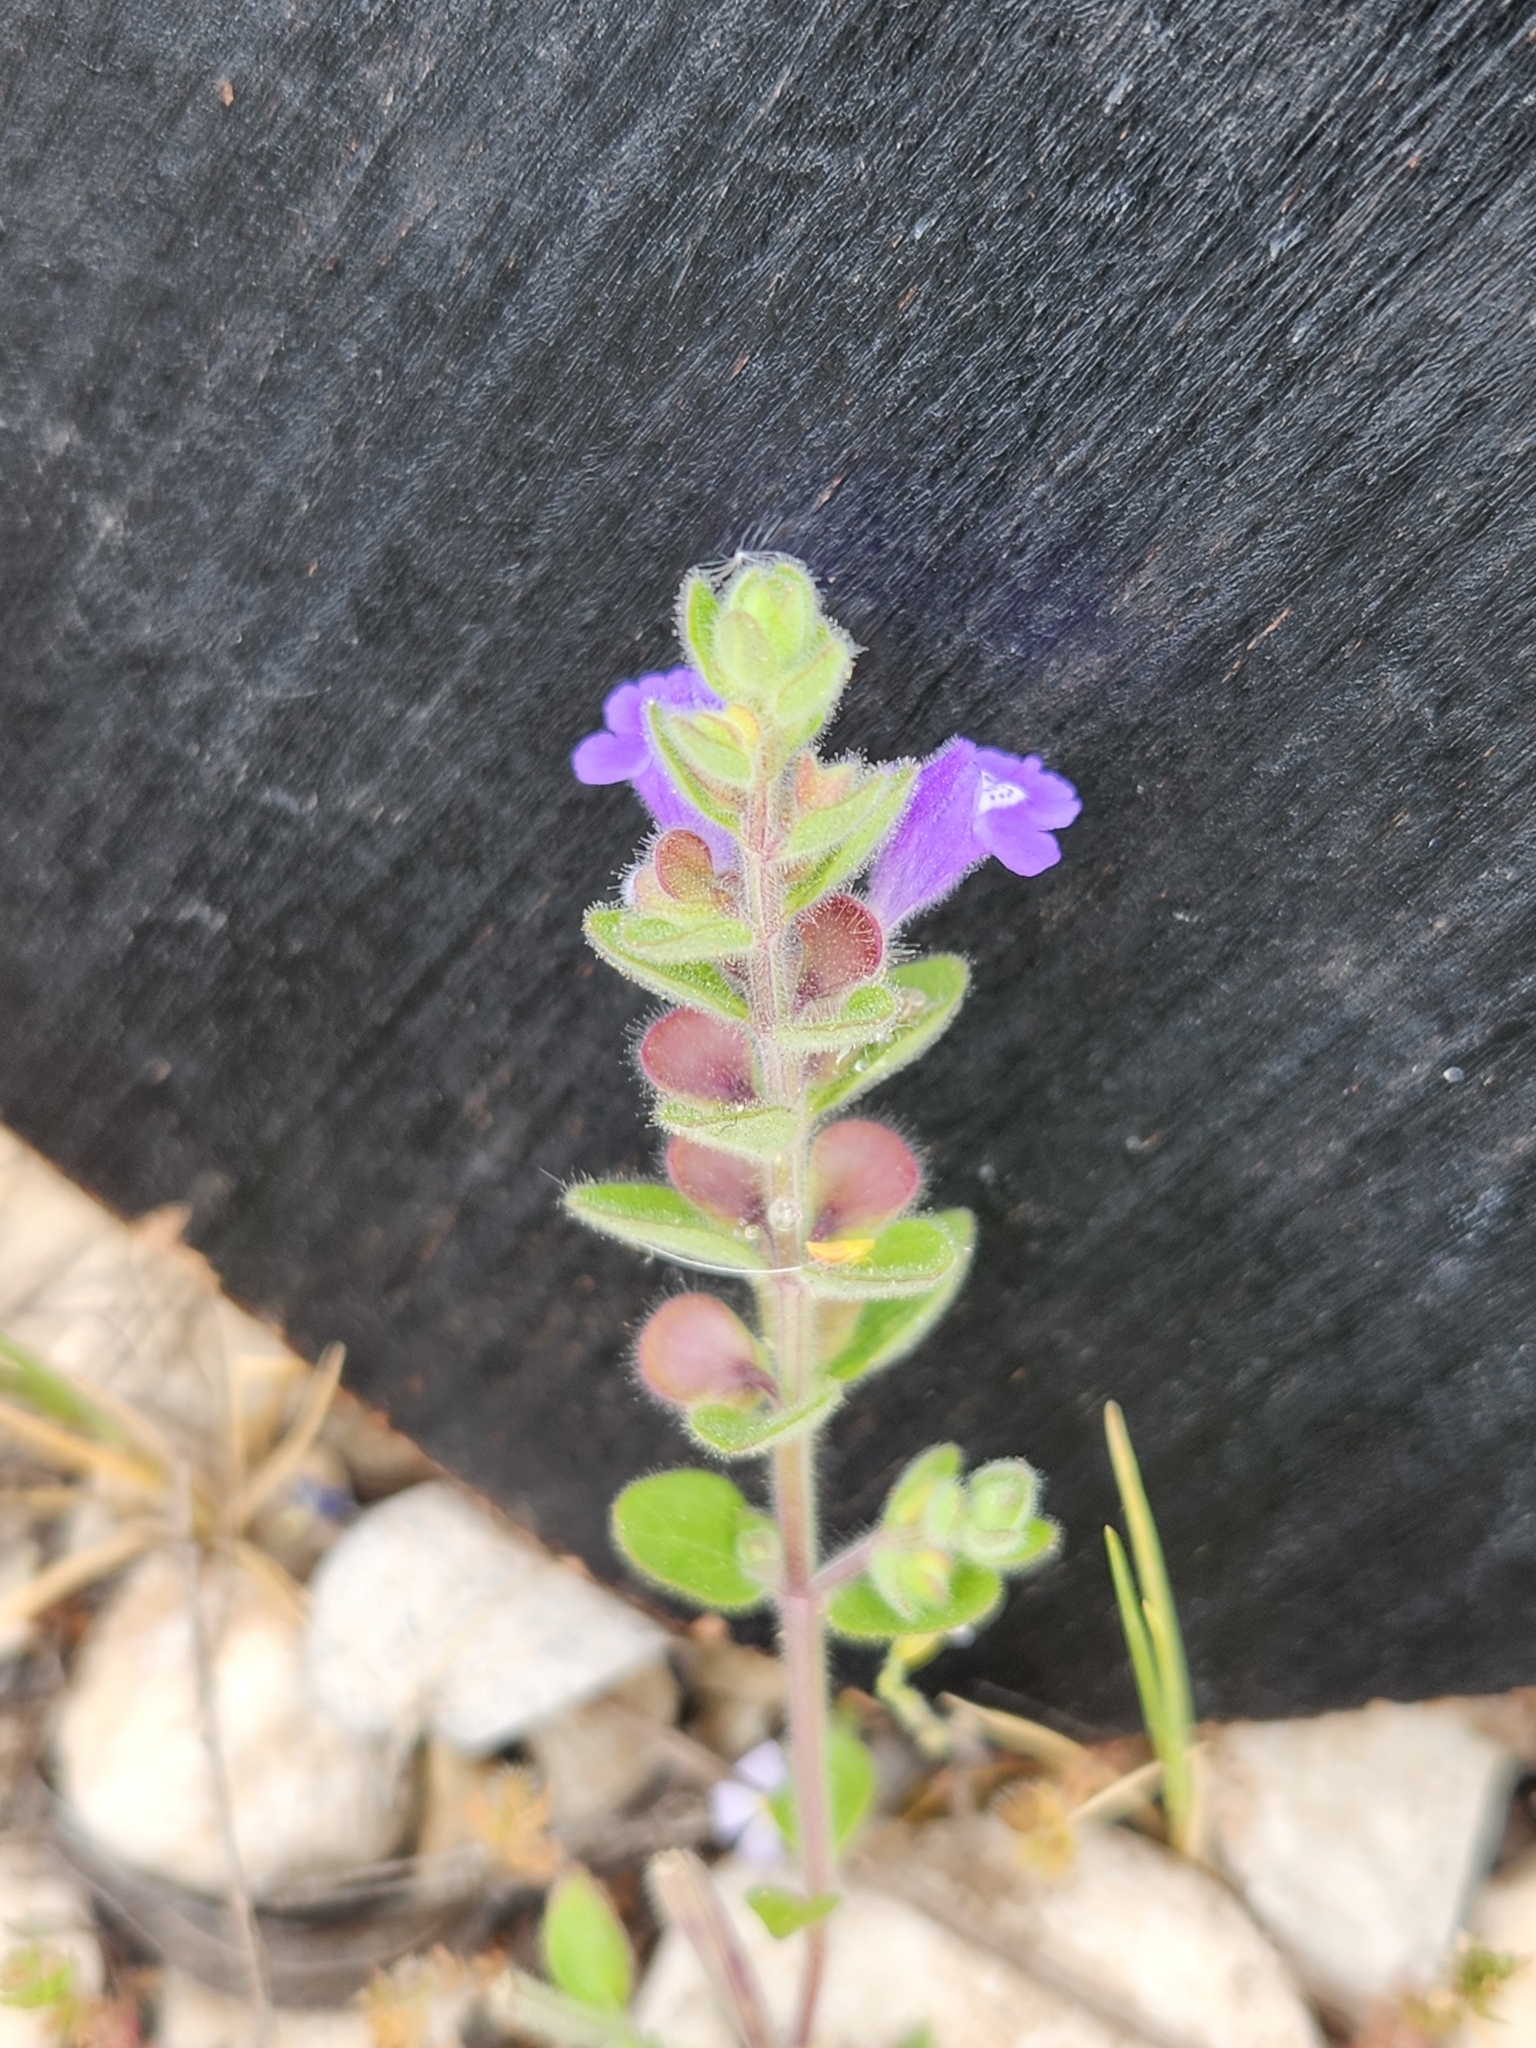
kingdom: Plantae
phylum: Tracheophyta
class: Magnoliopsida
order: Lamiales
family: Lamiaceae
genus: Scutellaria
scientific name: Scutellaria drummondii
